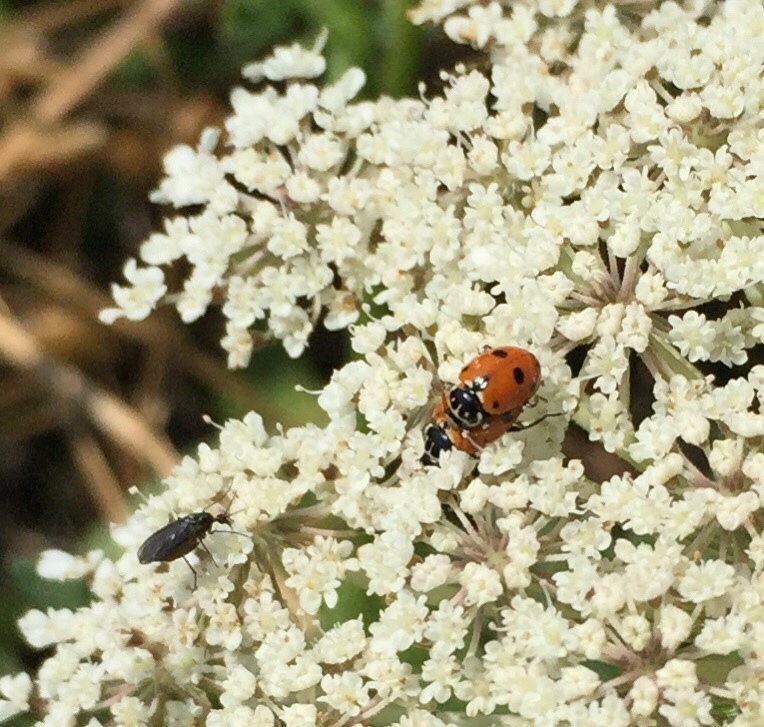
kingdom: Animalia
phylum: Arthropoda
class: Insecta
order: Coleoptera
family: Coccinellidae
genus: Hippodamia
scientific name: Hippodamia variegata
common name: Ladybird beetle
